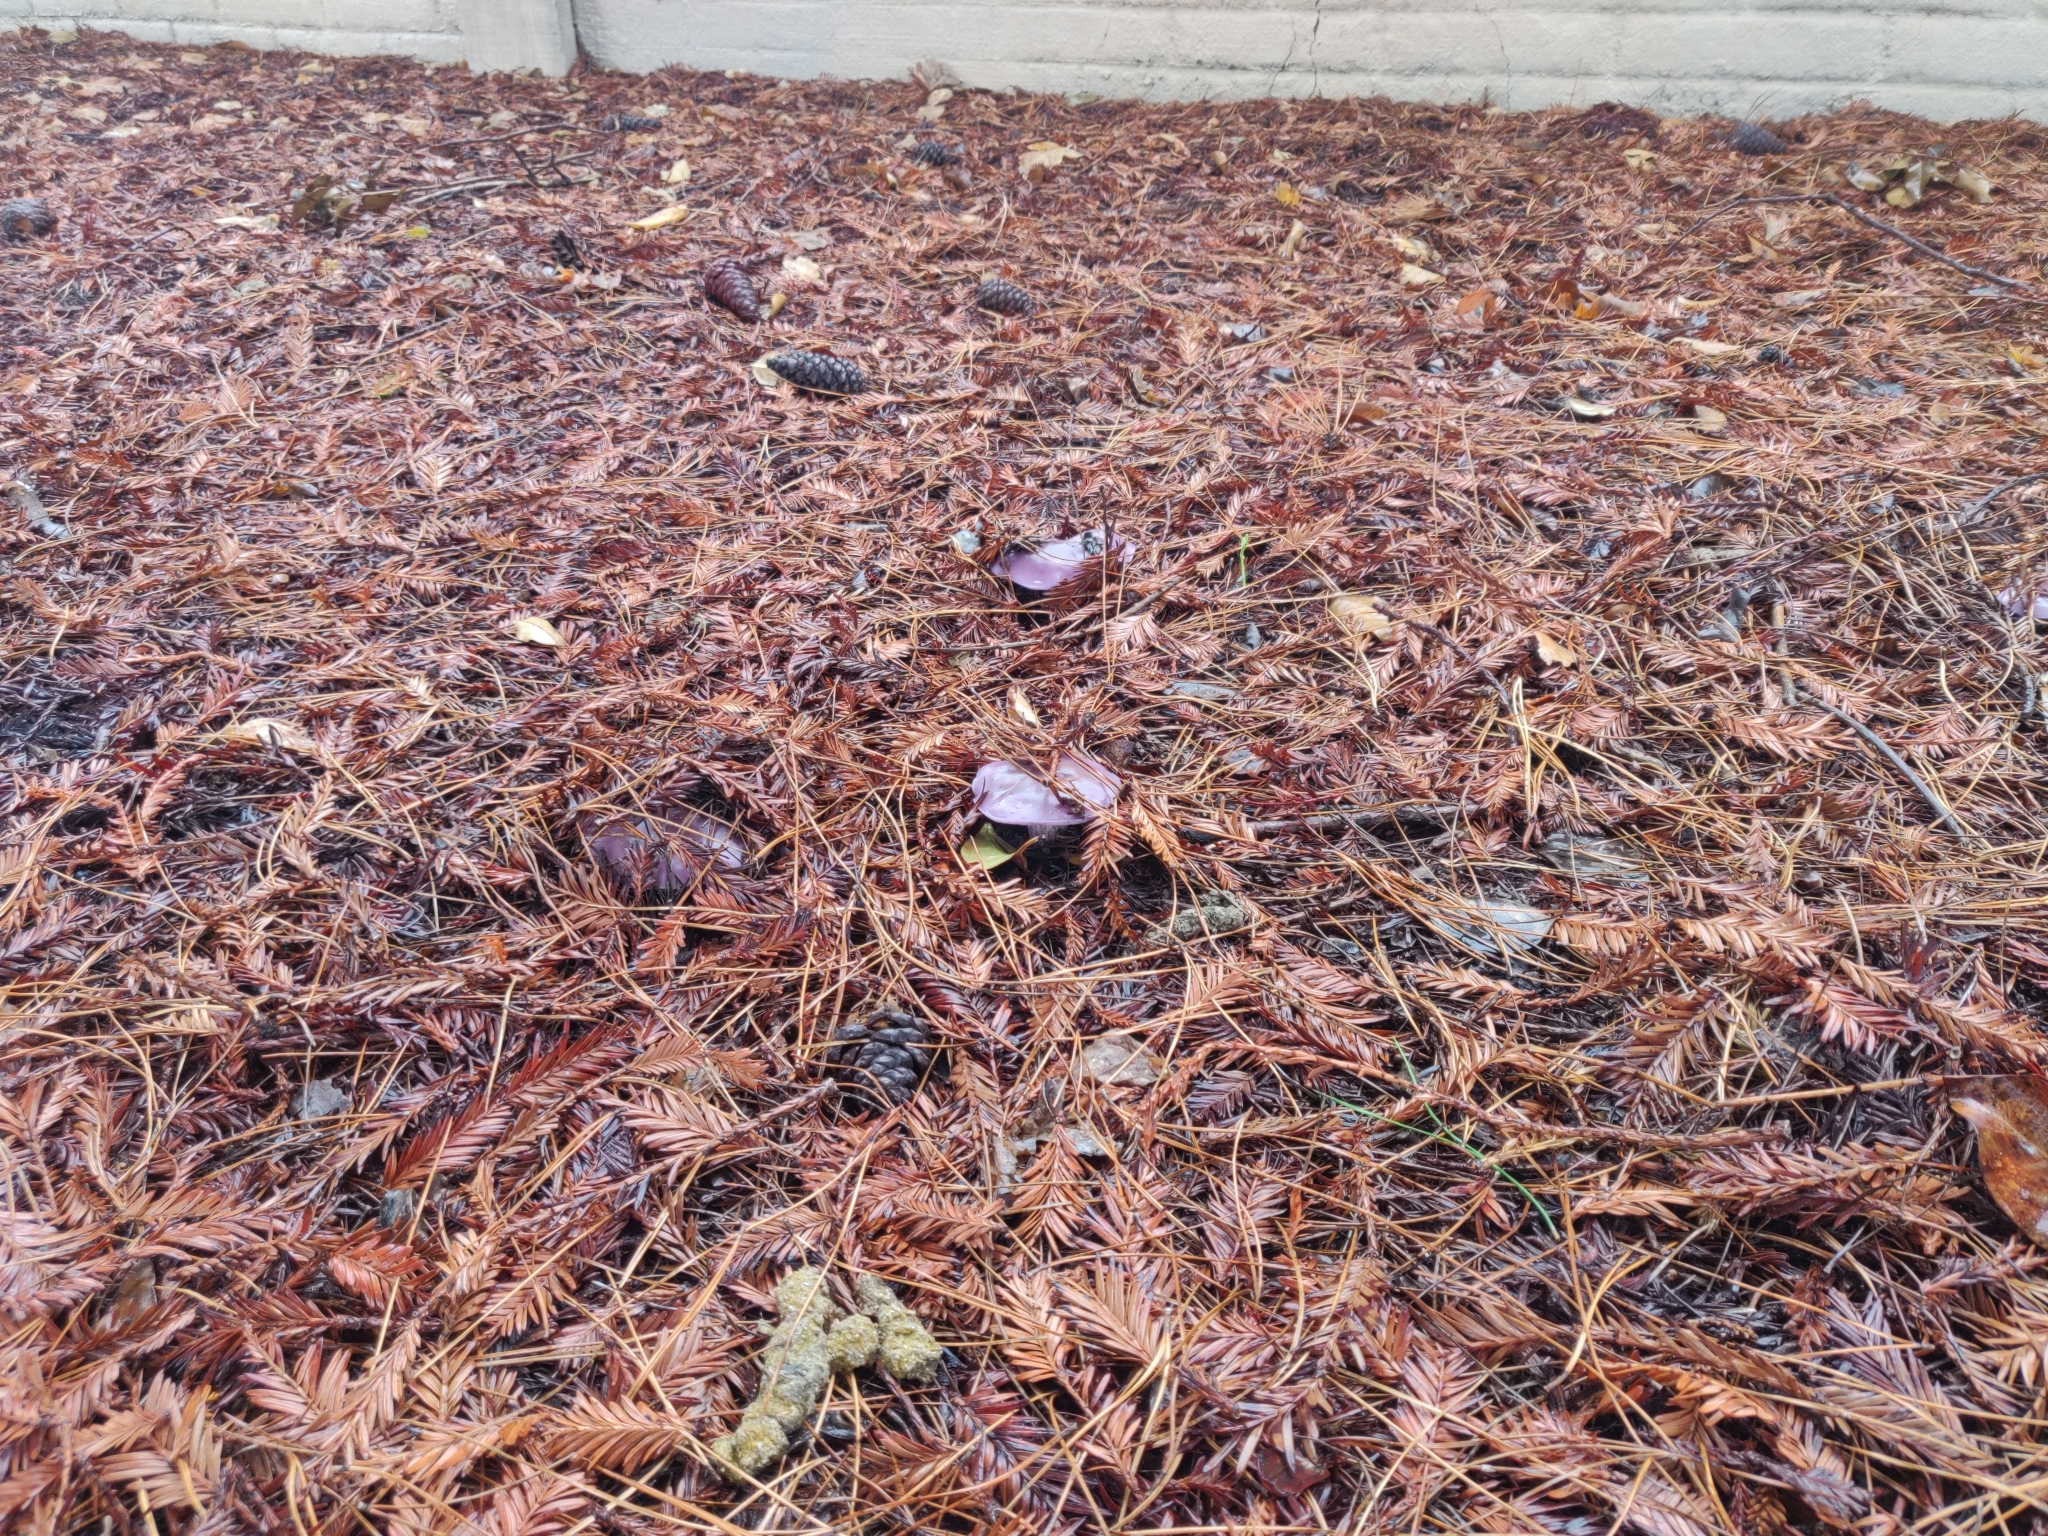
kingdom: Fungi
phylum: Basidiomycota
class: Agaricomycetes
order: Agaricales
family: Tricholomataceae
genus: Collybia
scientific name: Collybia
